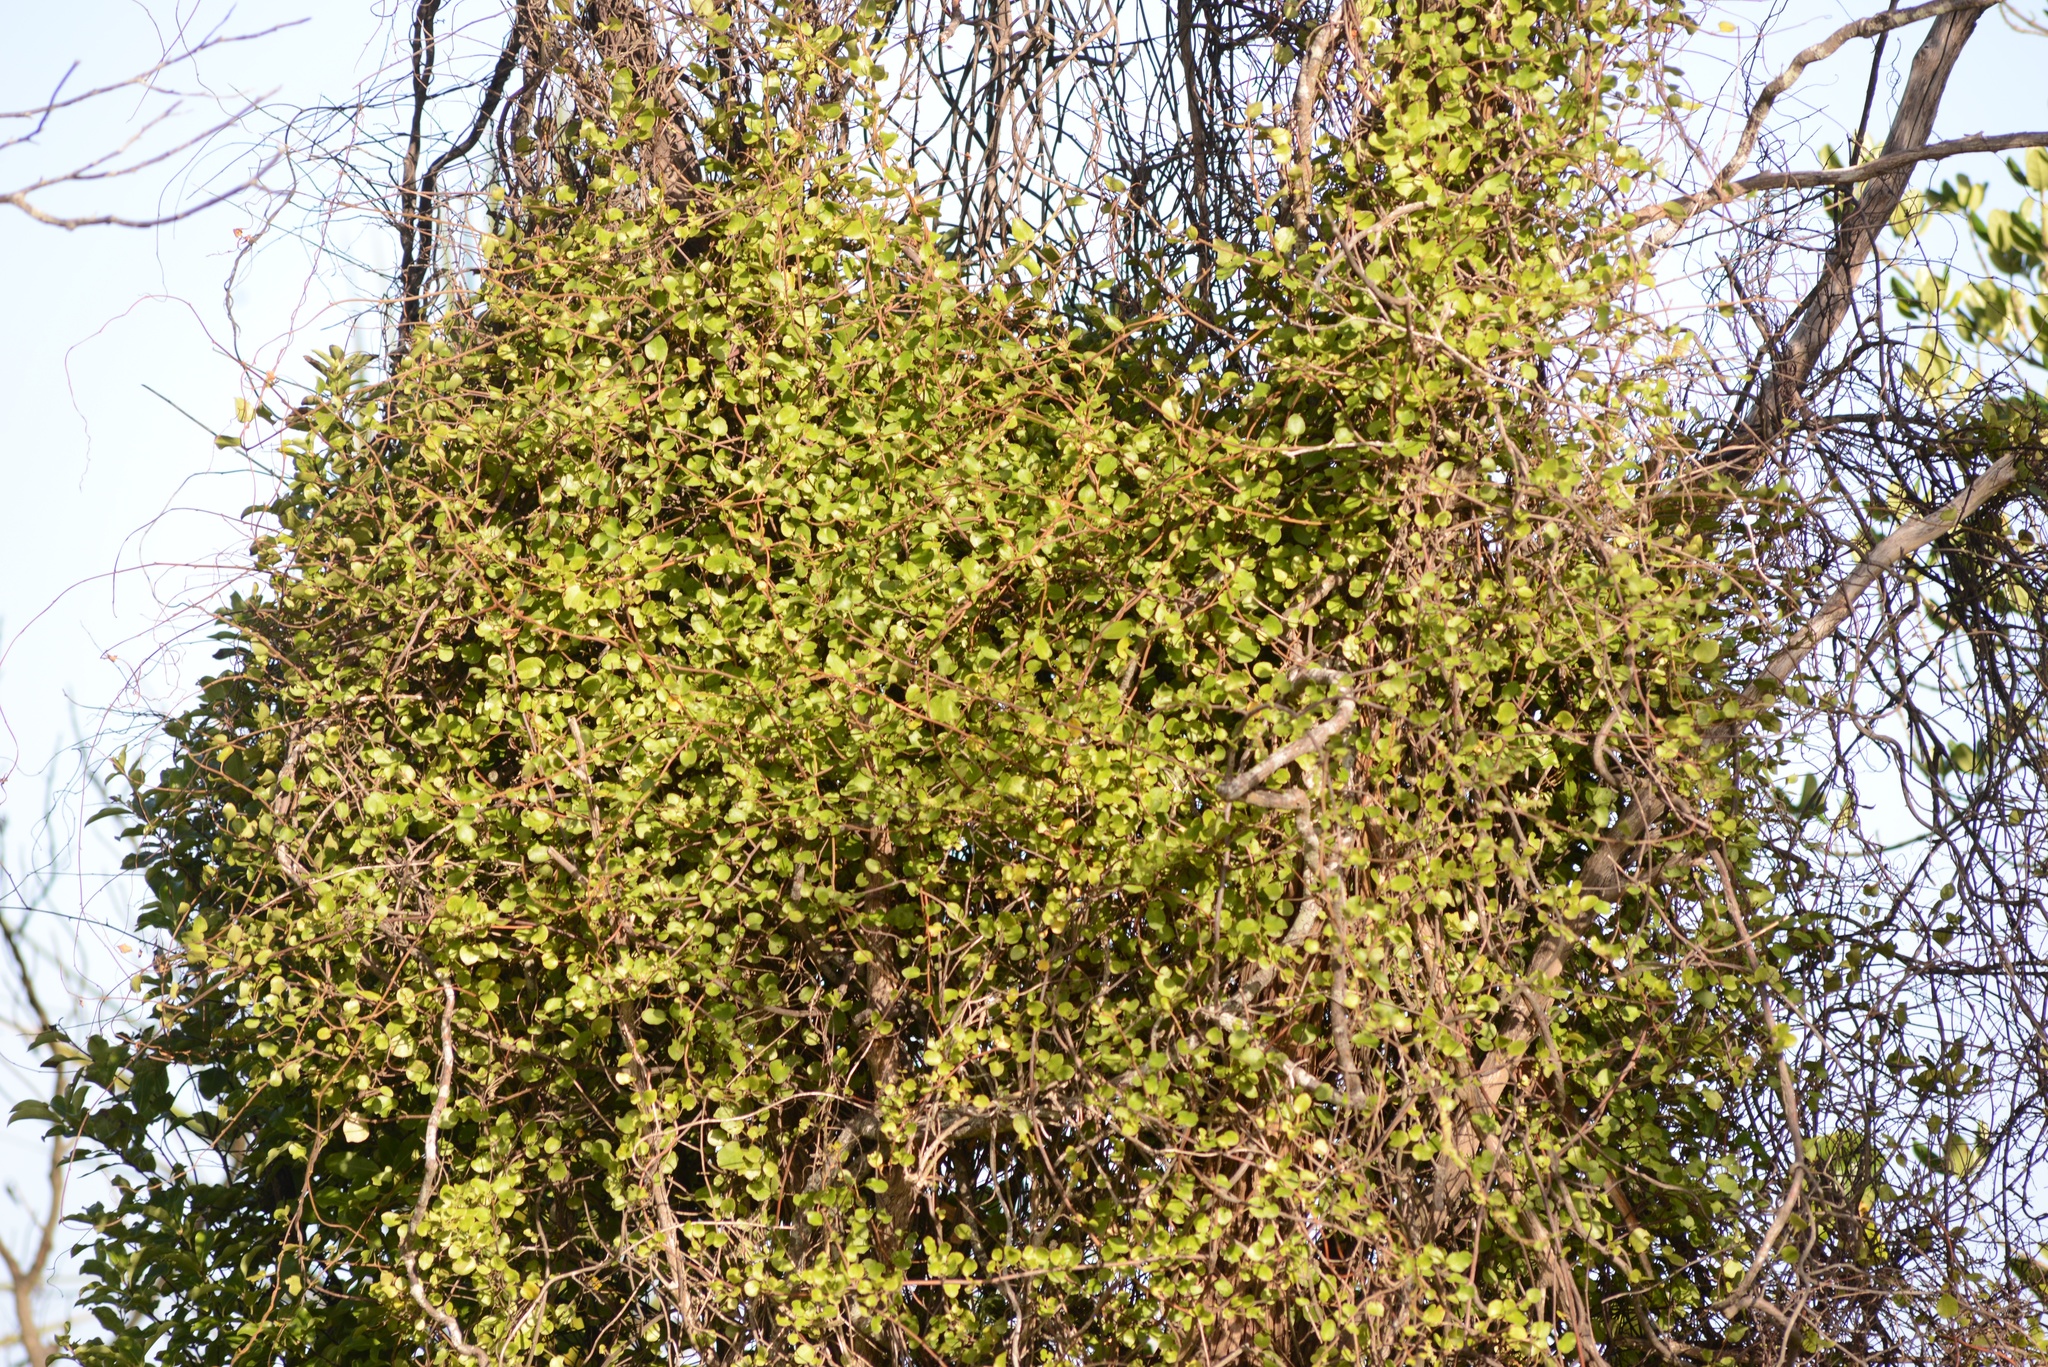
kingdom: Plantae
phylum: Tracheophyta
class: Magnoliopsida
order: Caryophyllales
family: Polygonaceae
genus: Muehlenbeckia
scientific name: Muehlenbeckia
